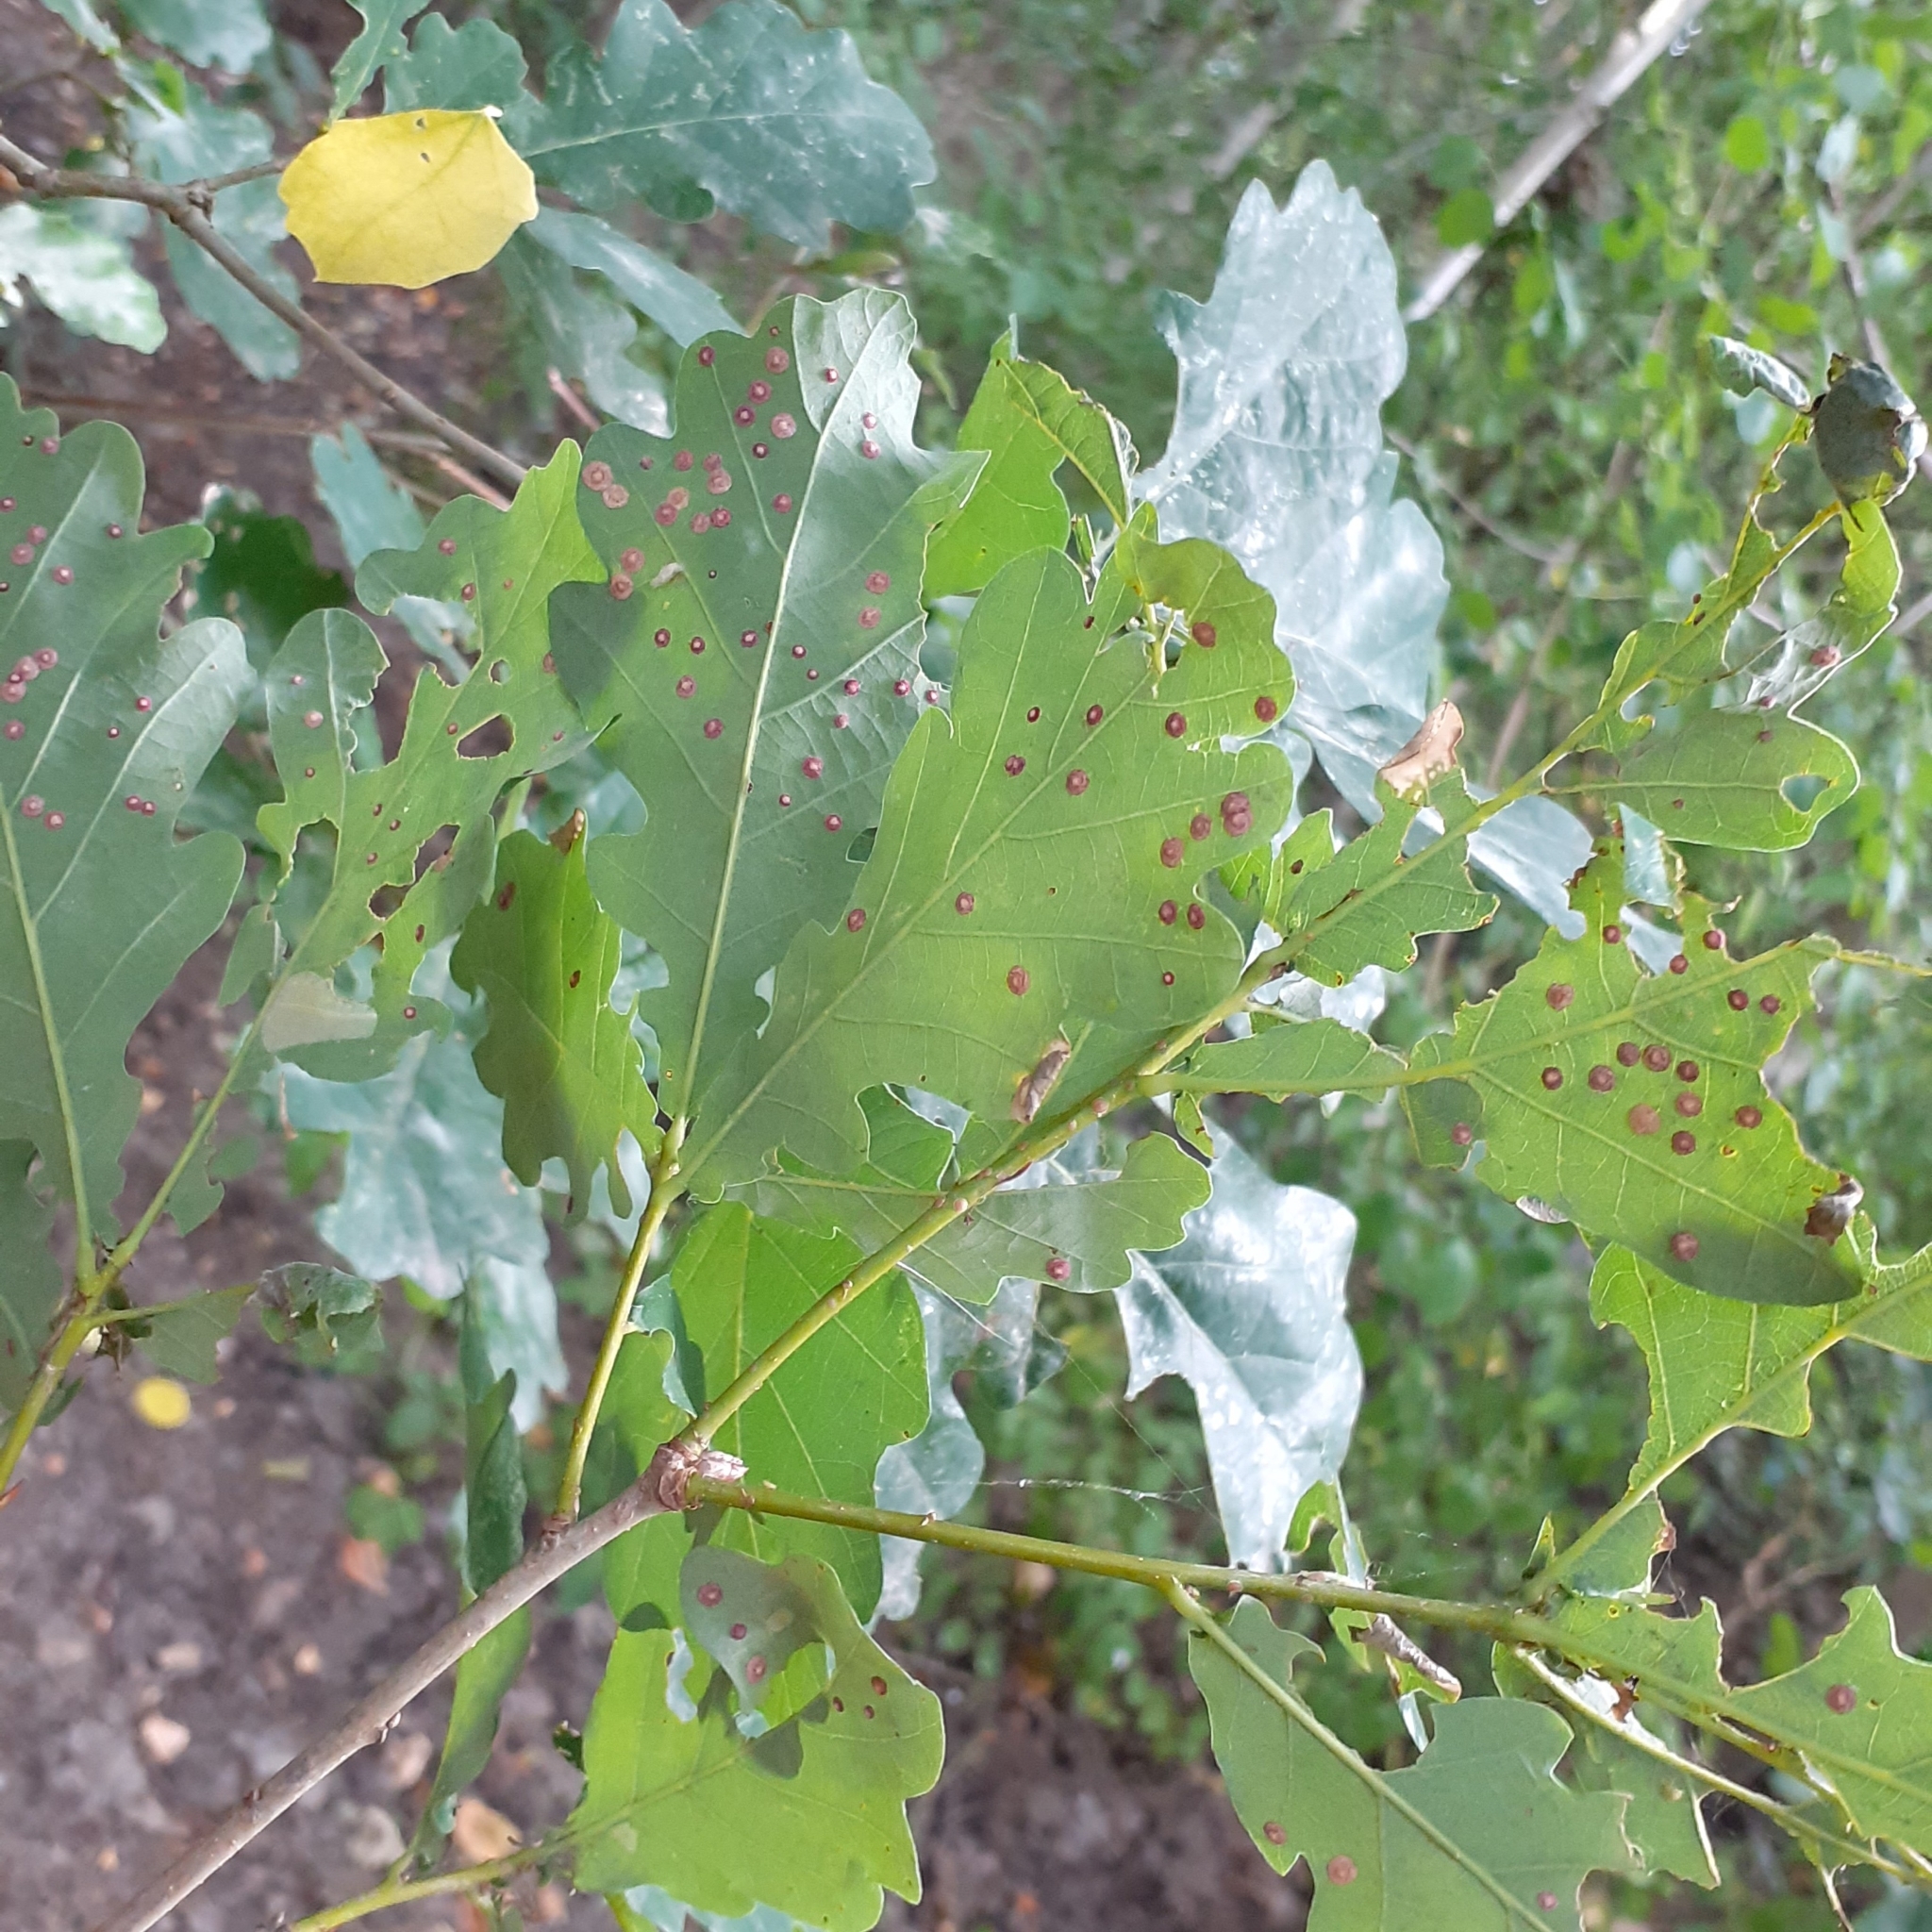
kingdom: Animalia
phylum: Arthropoda
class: Insecta
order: Hymenoptera
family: Cynipidae
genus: Neuroterus
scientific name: Neuroterus quercusbaccarum
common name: Common spangle gall
